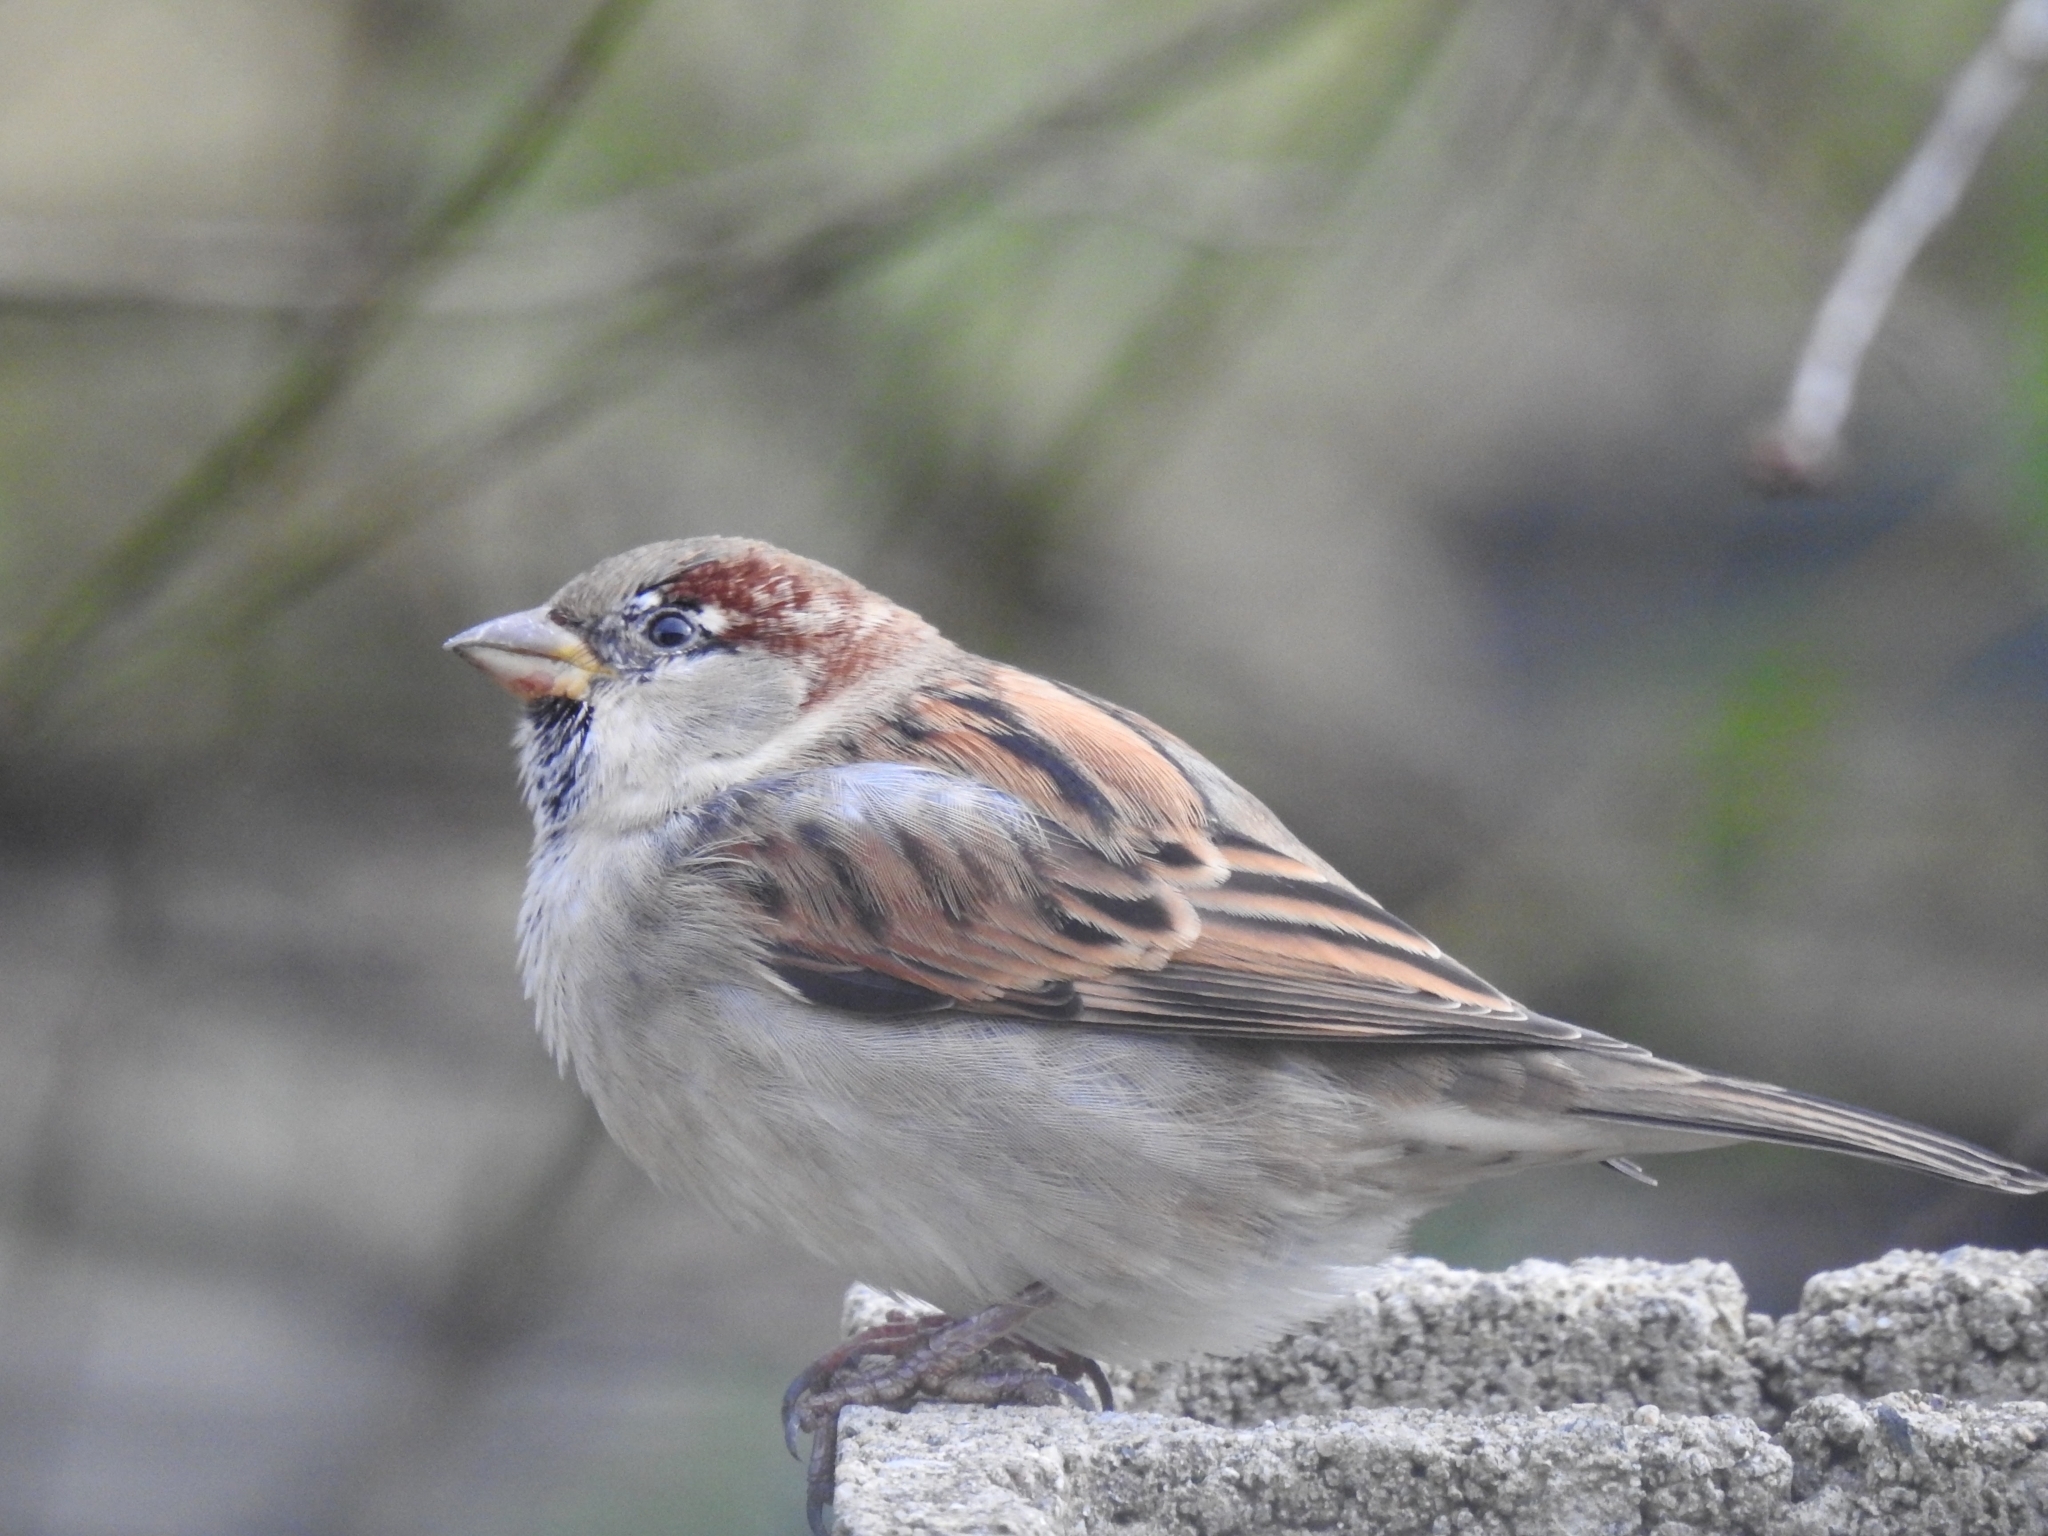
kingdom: Animalia
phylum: Chordata
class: Aves
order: Passeriformes
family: Passeridae
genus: Passer
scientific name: Passer domesticus
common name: House sparrow
